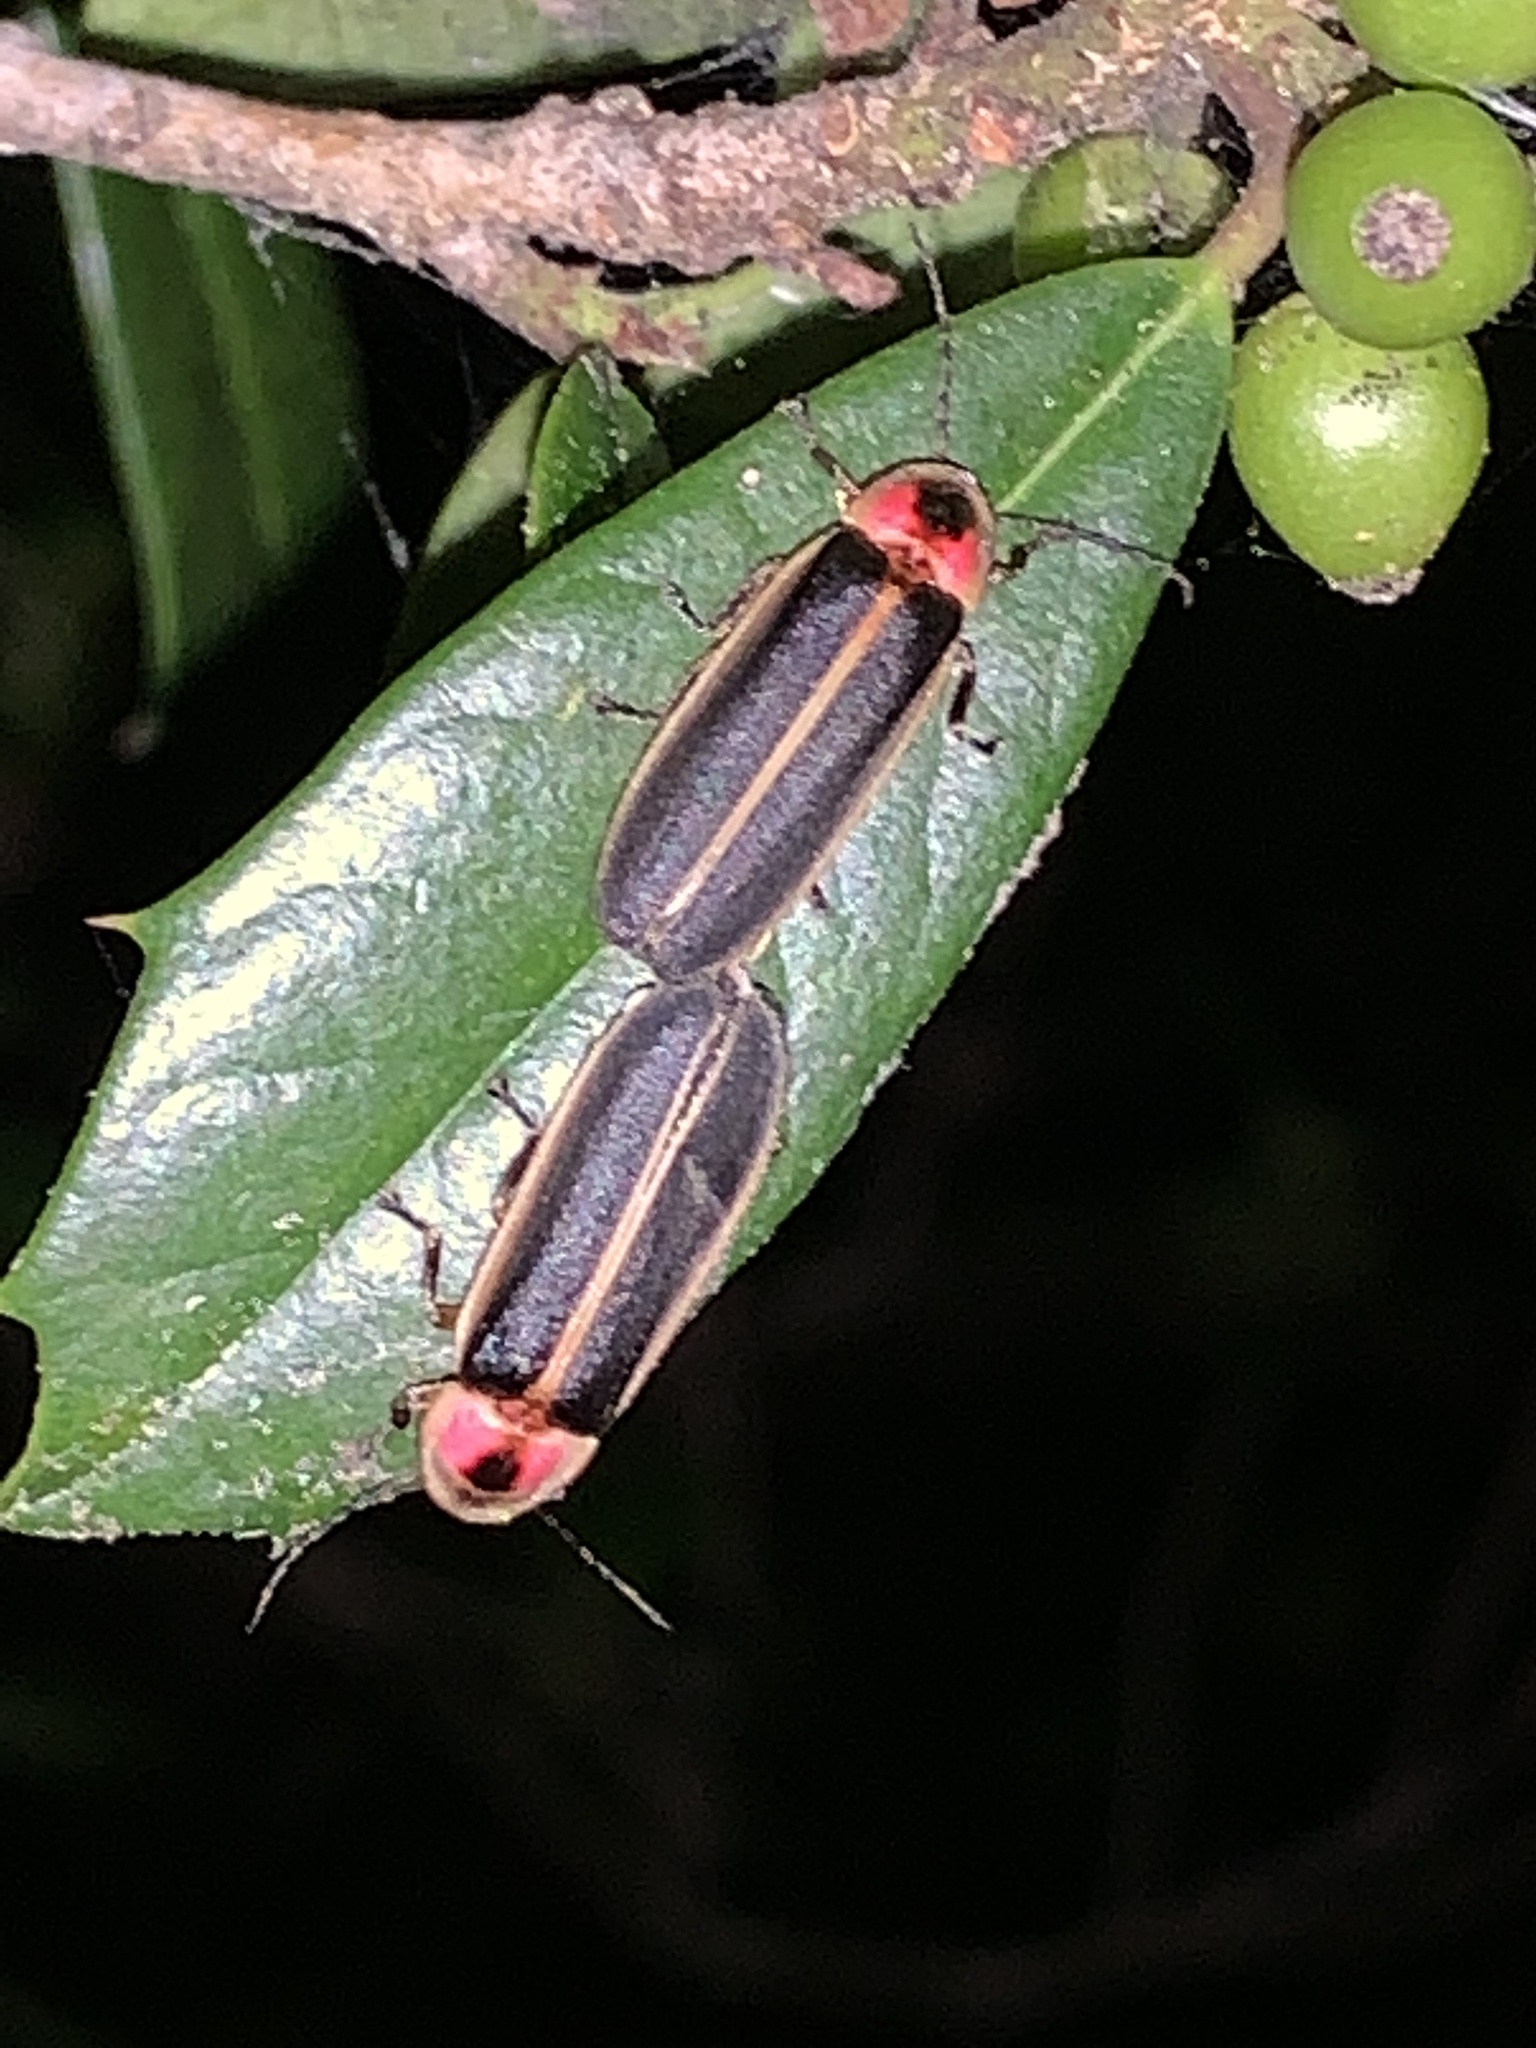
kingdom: Animalia
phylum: Arthropoda
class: Insecta
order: Coleoptera
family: Lampyridae
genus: Photinus
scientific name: Photinus pyralis
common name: Big dipper firefly
